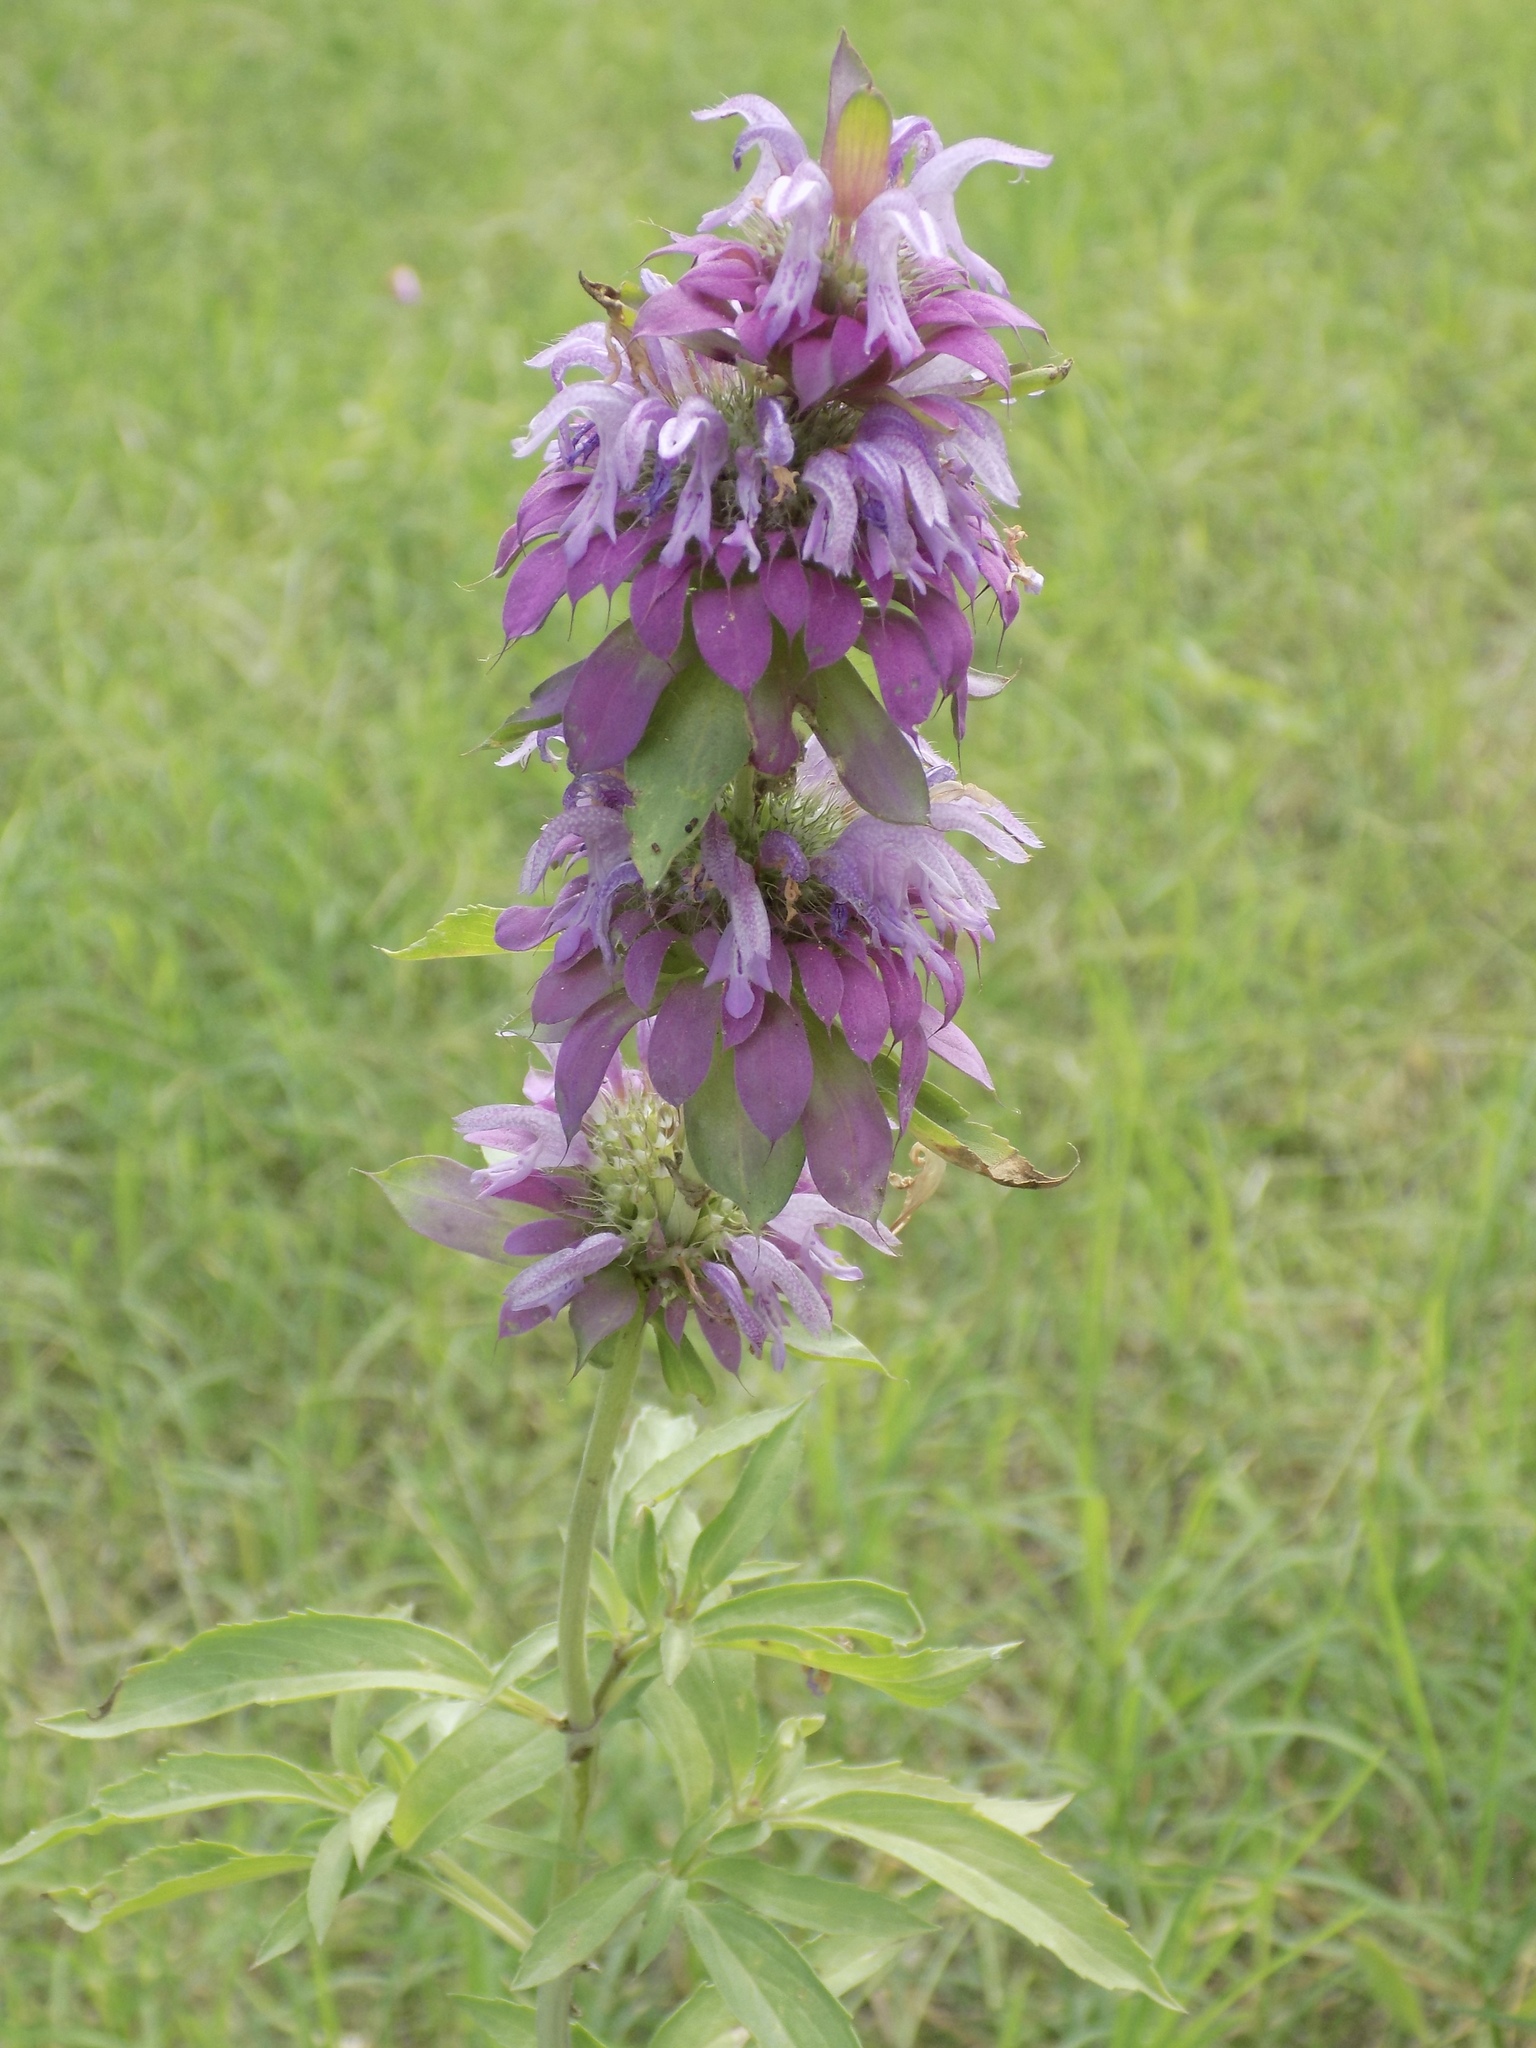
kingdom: Plantae
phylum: Tracheophyta
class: Magnoliopsida
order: Lamiales
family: Lamiaceae
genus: Monarda
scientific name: Monarda citriodora
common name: Lemon beebalm
